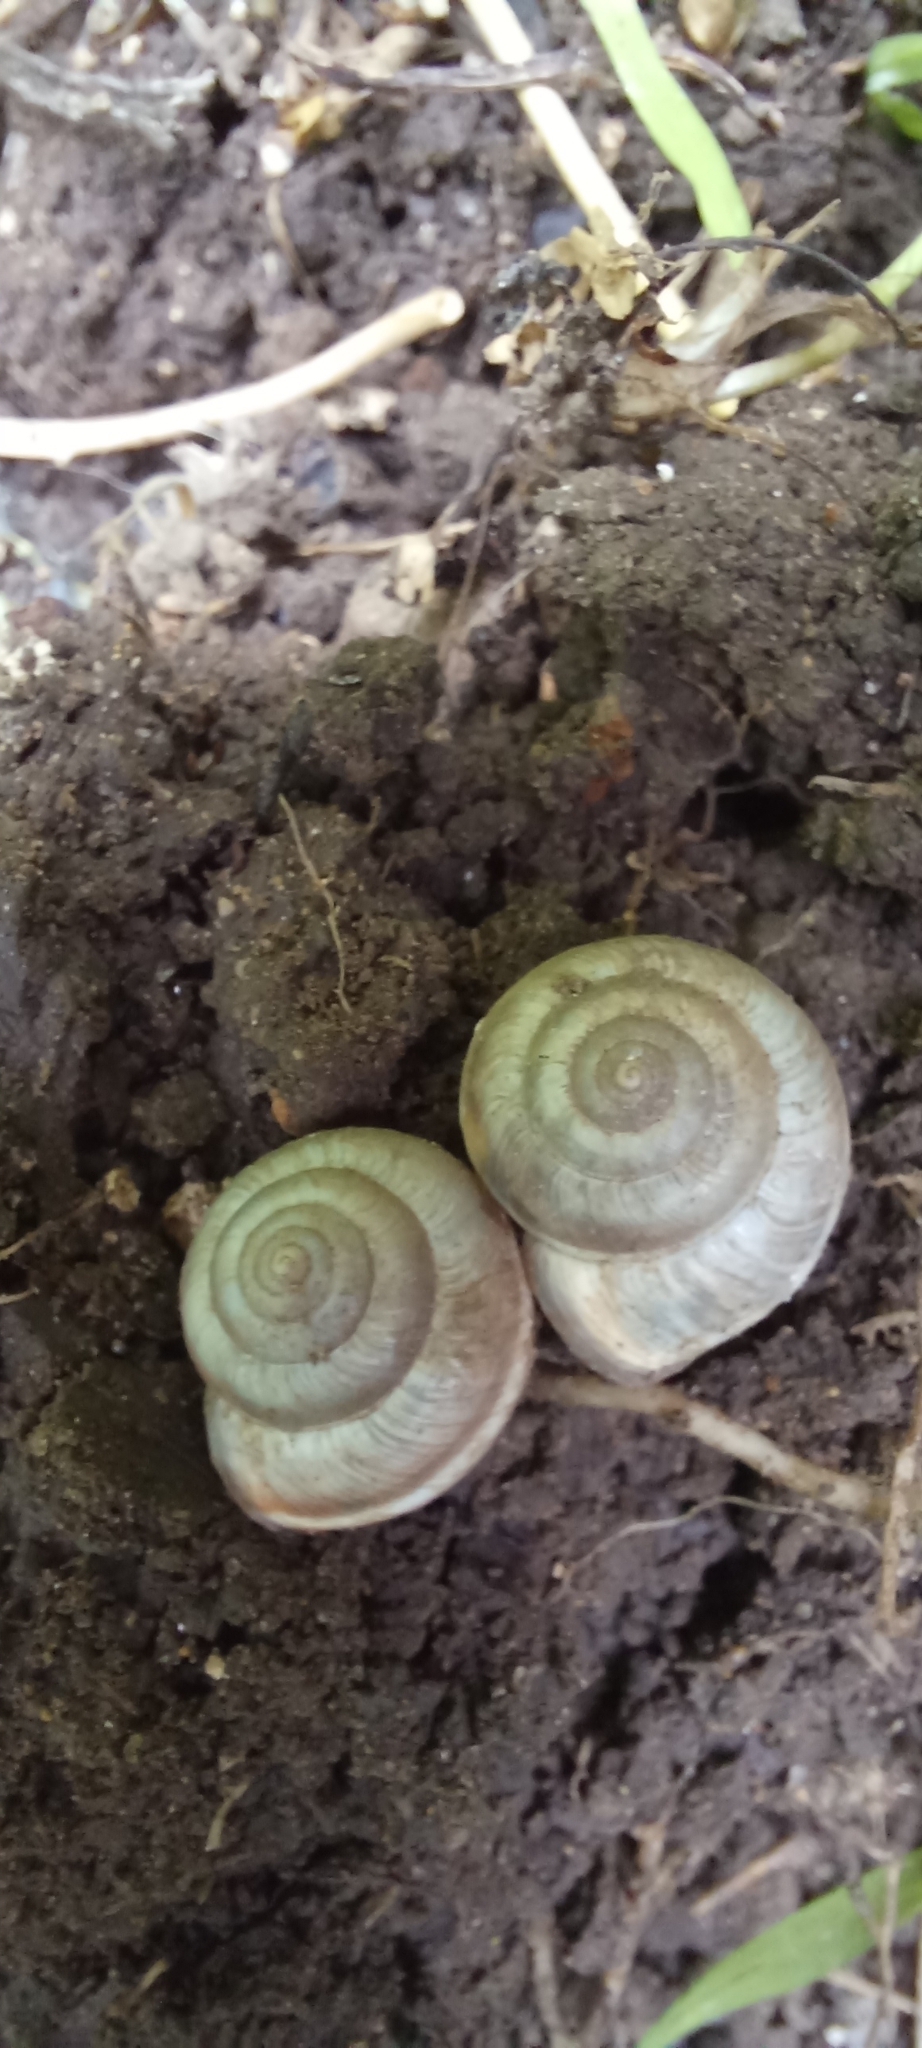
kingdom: Animalia
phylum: Mollusca
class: Gastropoda
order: Stylommatophora
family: Hygromiidae
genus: Harmozica
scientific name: Harmozica ravergiensis
